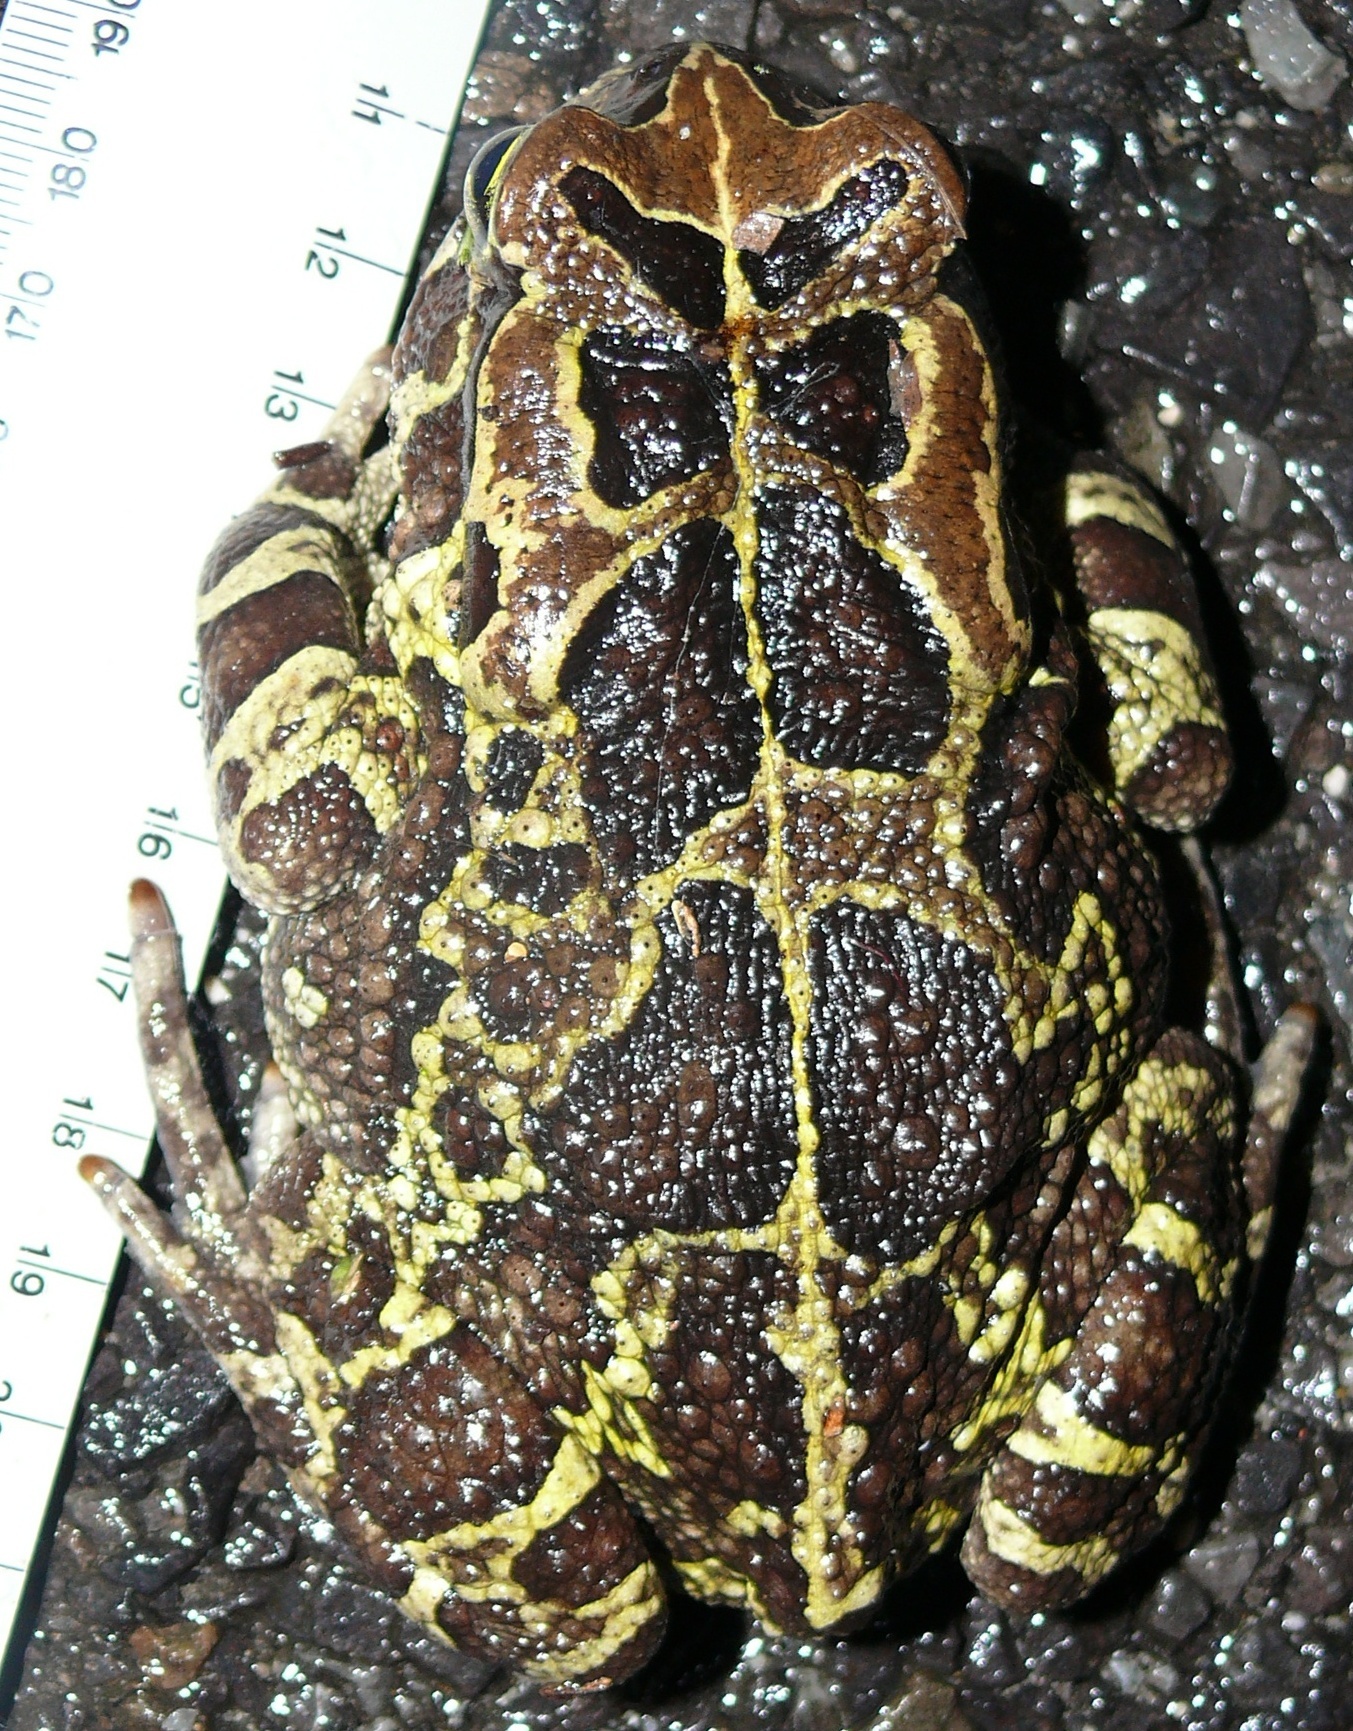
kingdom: Animalia
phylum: Chordata
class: Amphibia
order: Anura
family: Bufonidae
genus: Sclerophrys
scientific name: Sclerophrys pantherina
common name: Panther toad
